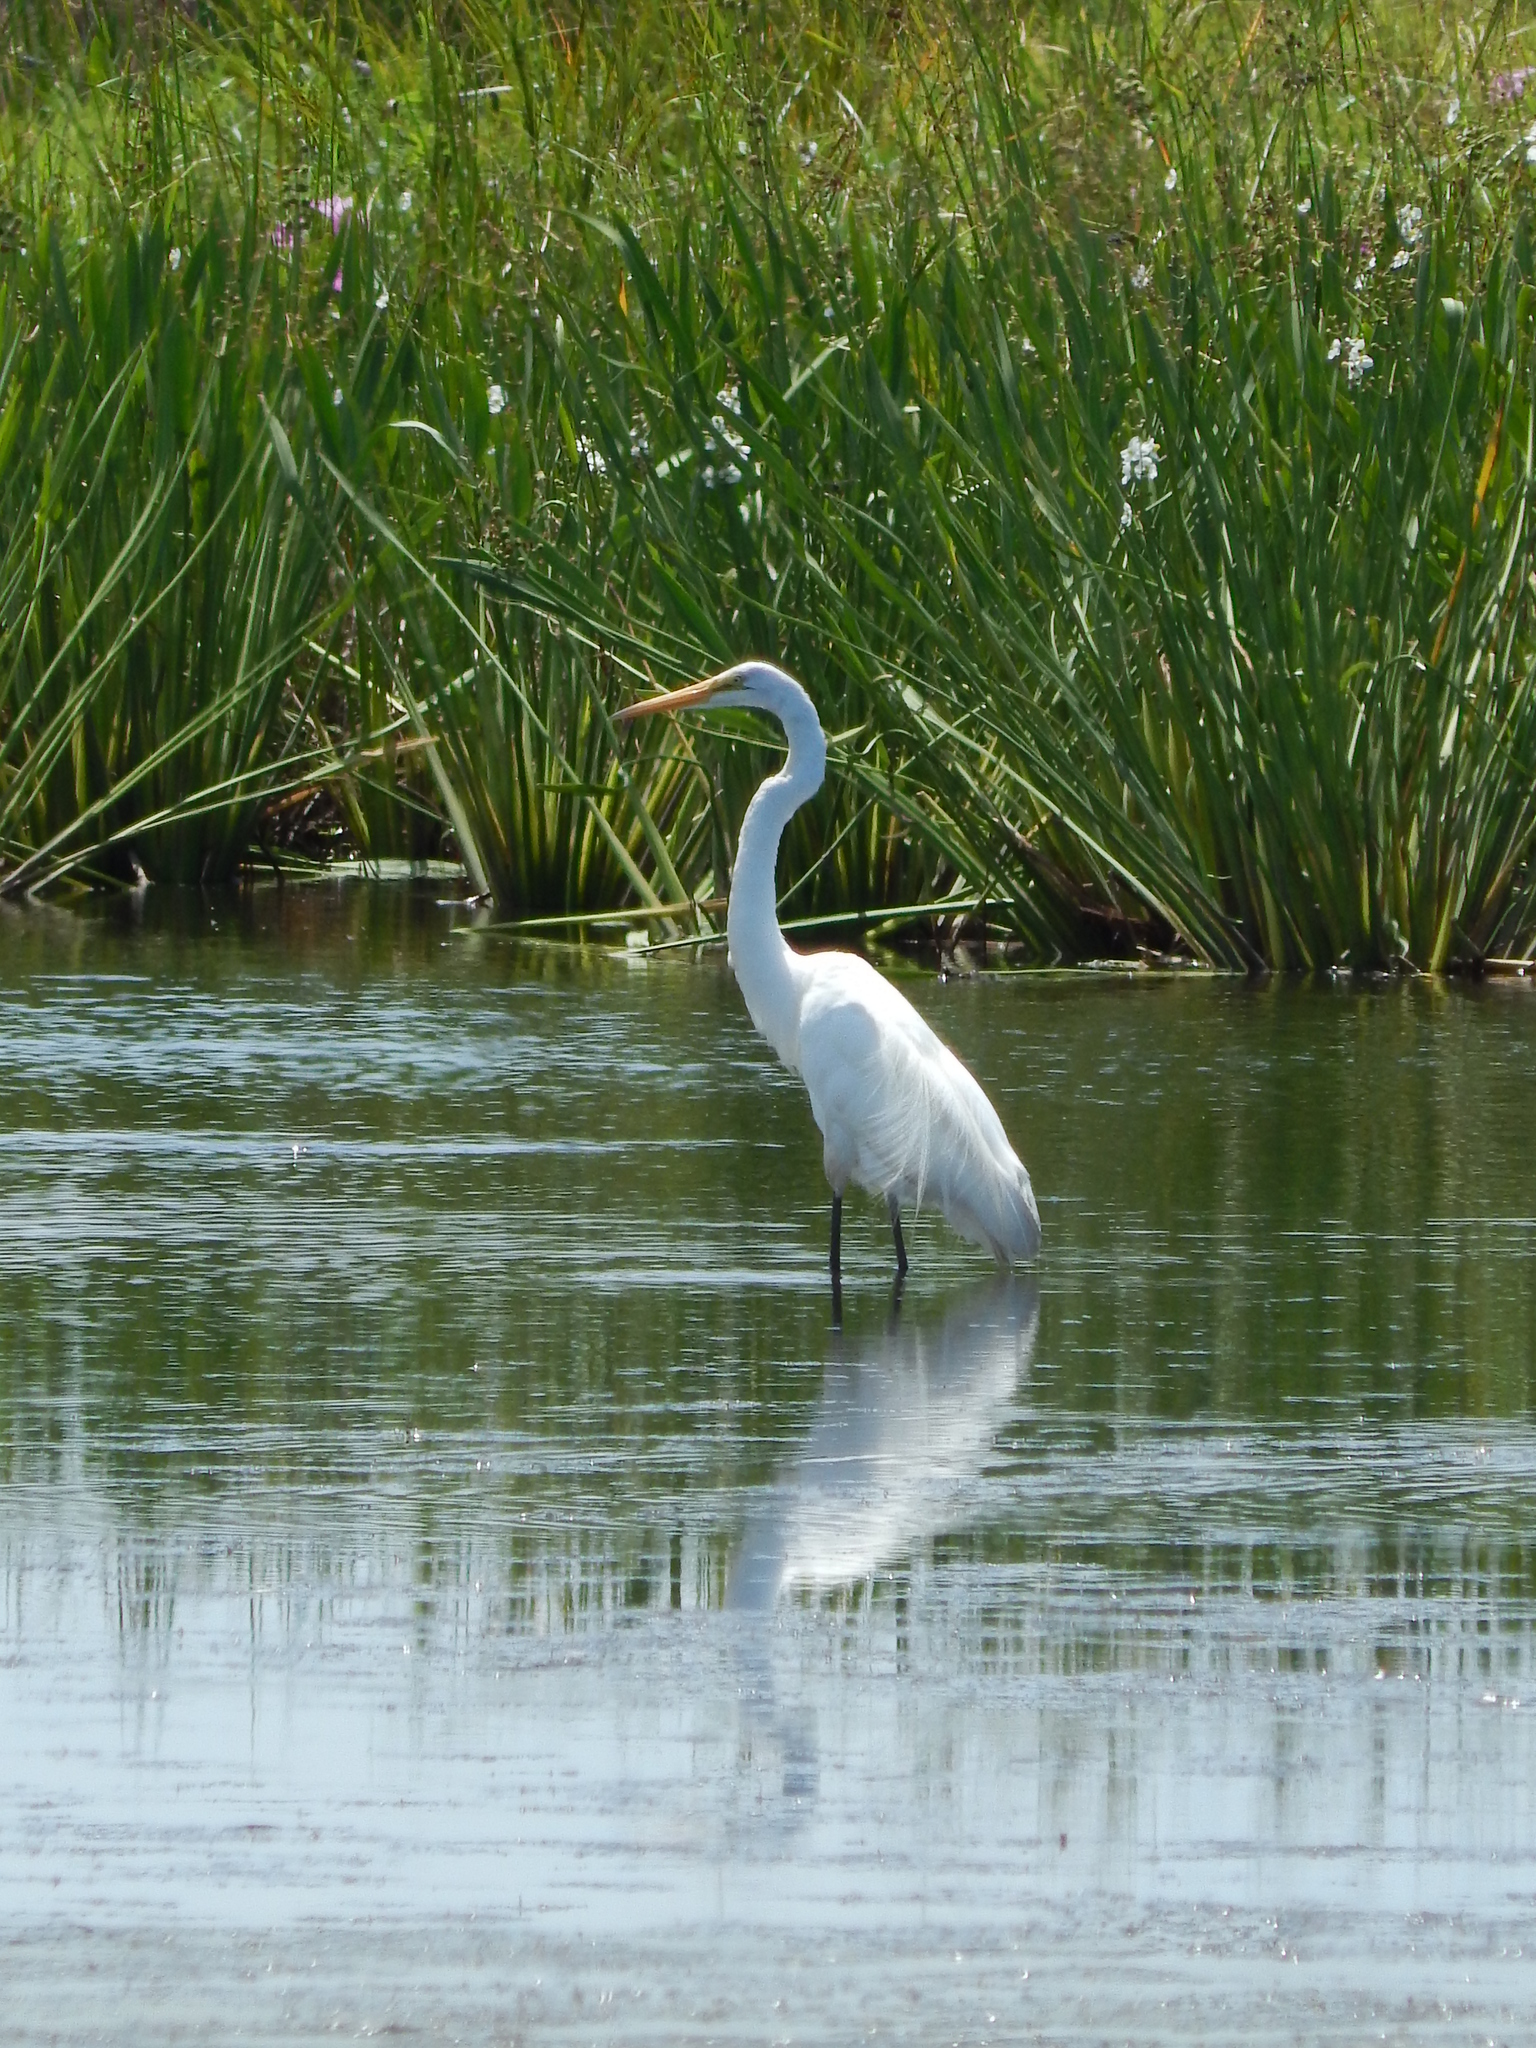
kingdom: Animalia
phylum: Chordata
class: Aves
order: Pelecaniformes
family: Ardeidae
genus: Ardea
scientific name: Ardea alba
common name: Great egret
